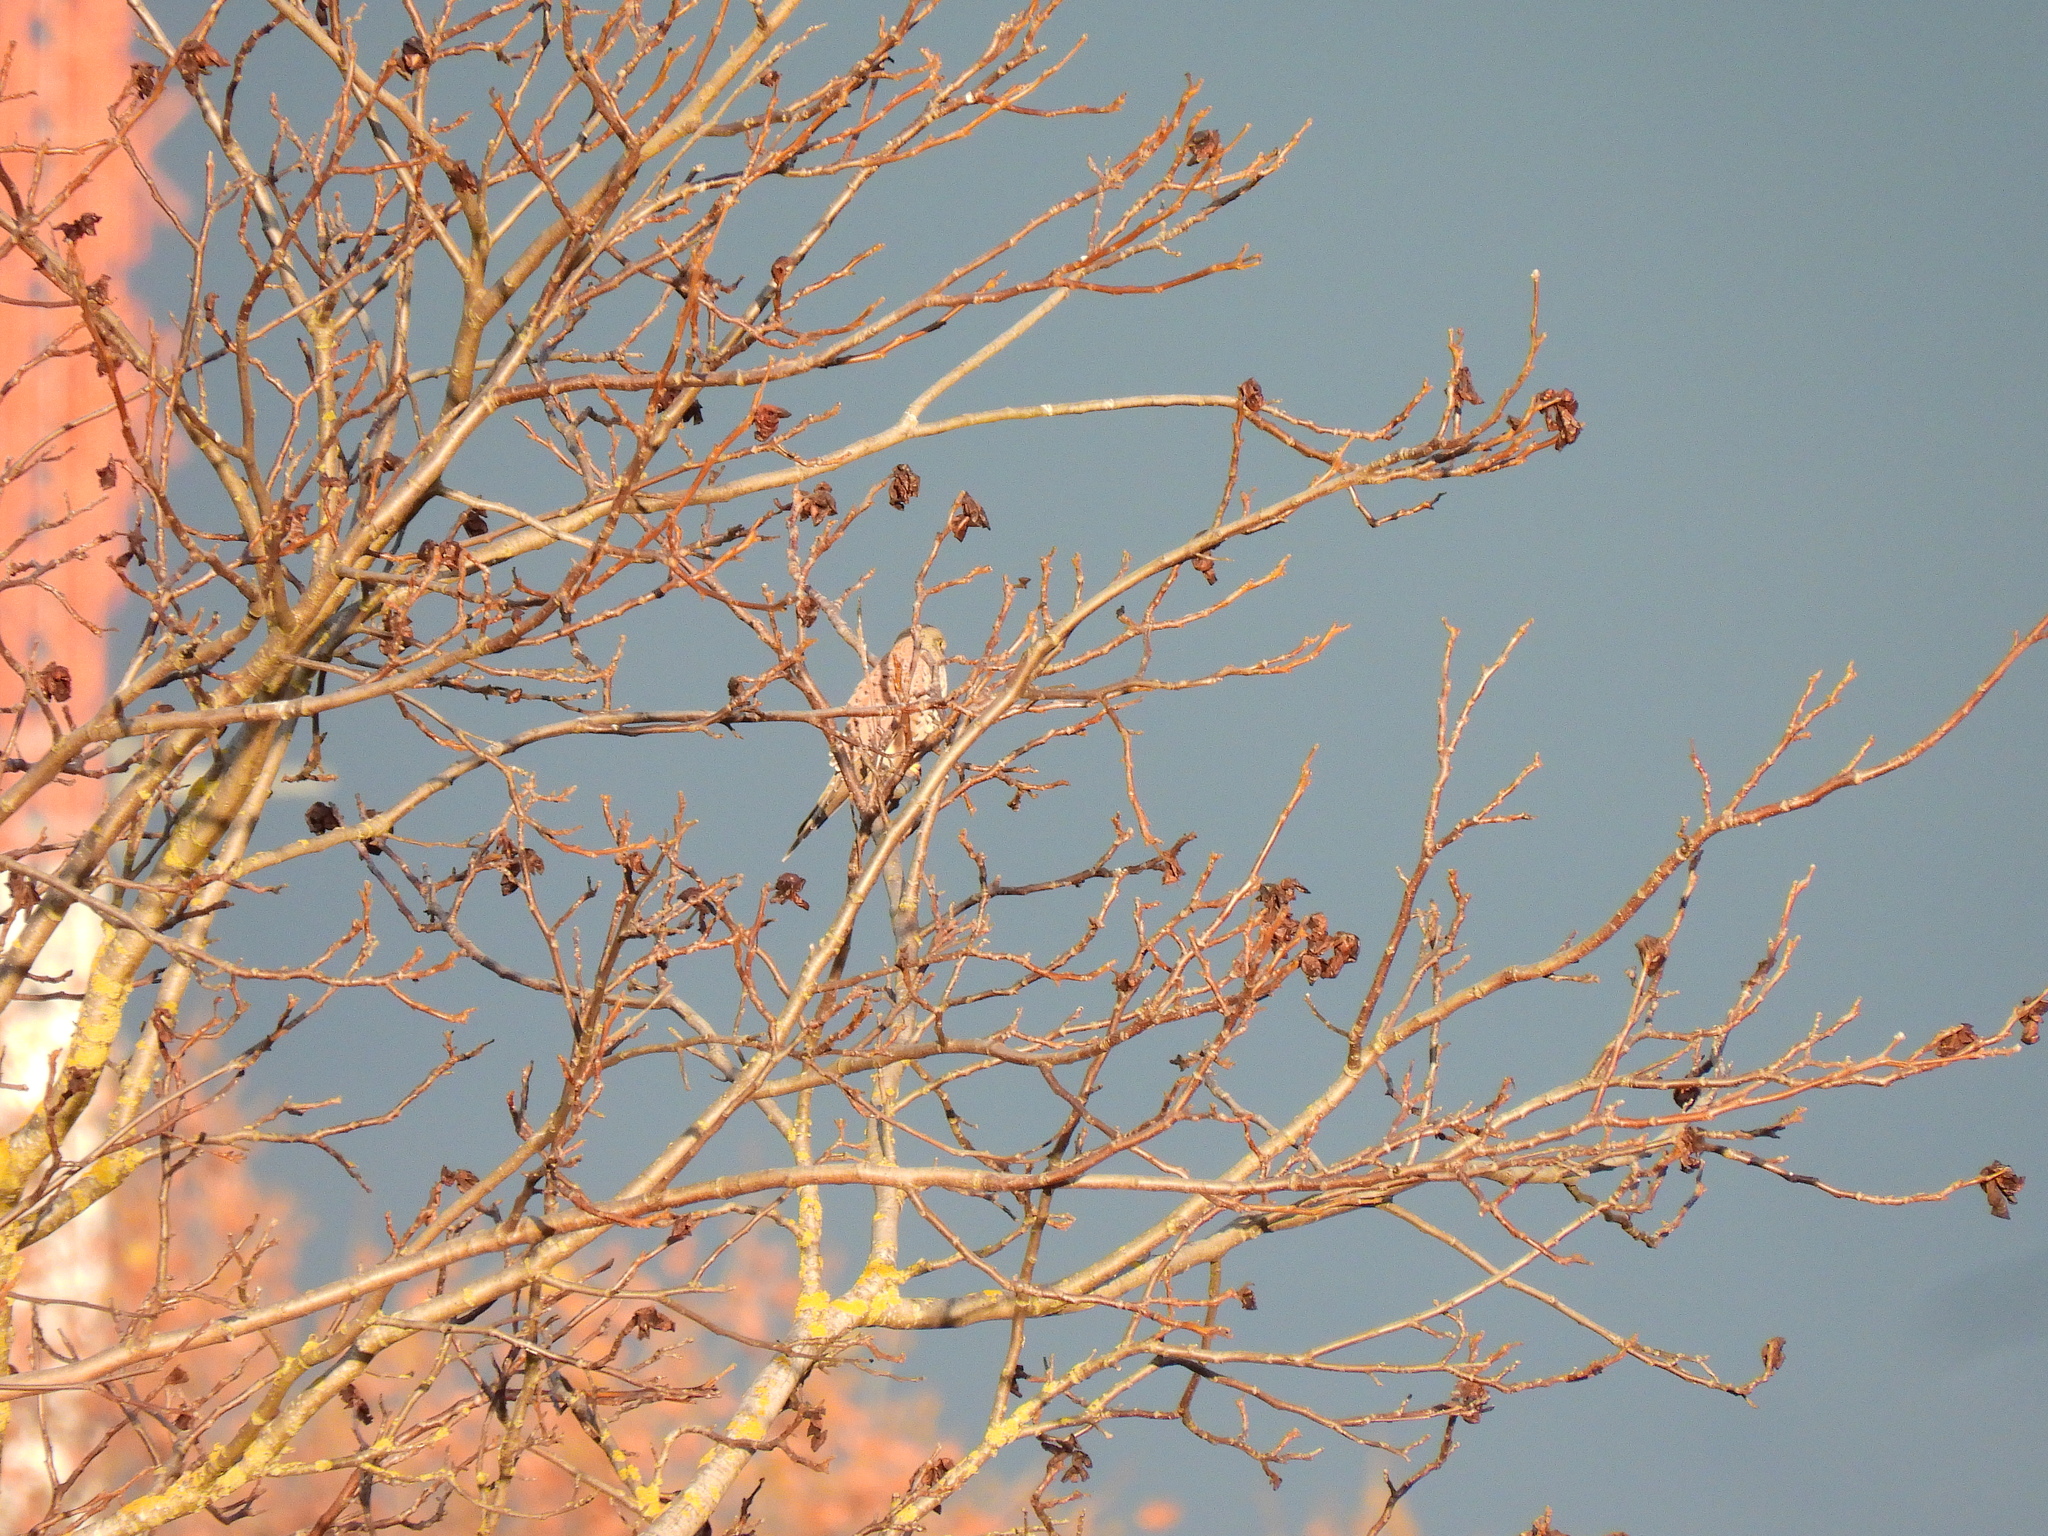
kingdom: Animalia
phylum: Chordata
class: Aves
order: Falconiformes
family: Falconidae
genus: Falco
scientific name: Falco tinnunculus
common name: Common kestrel
